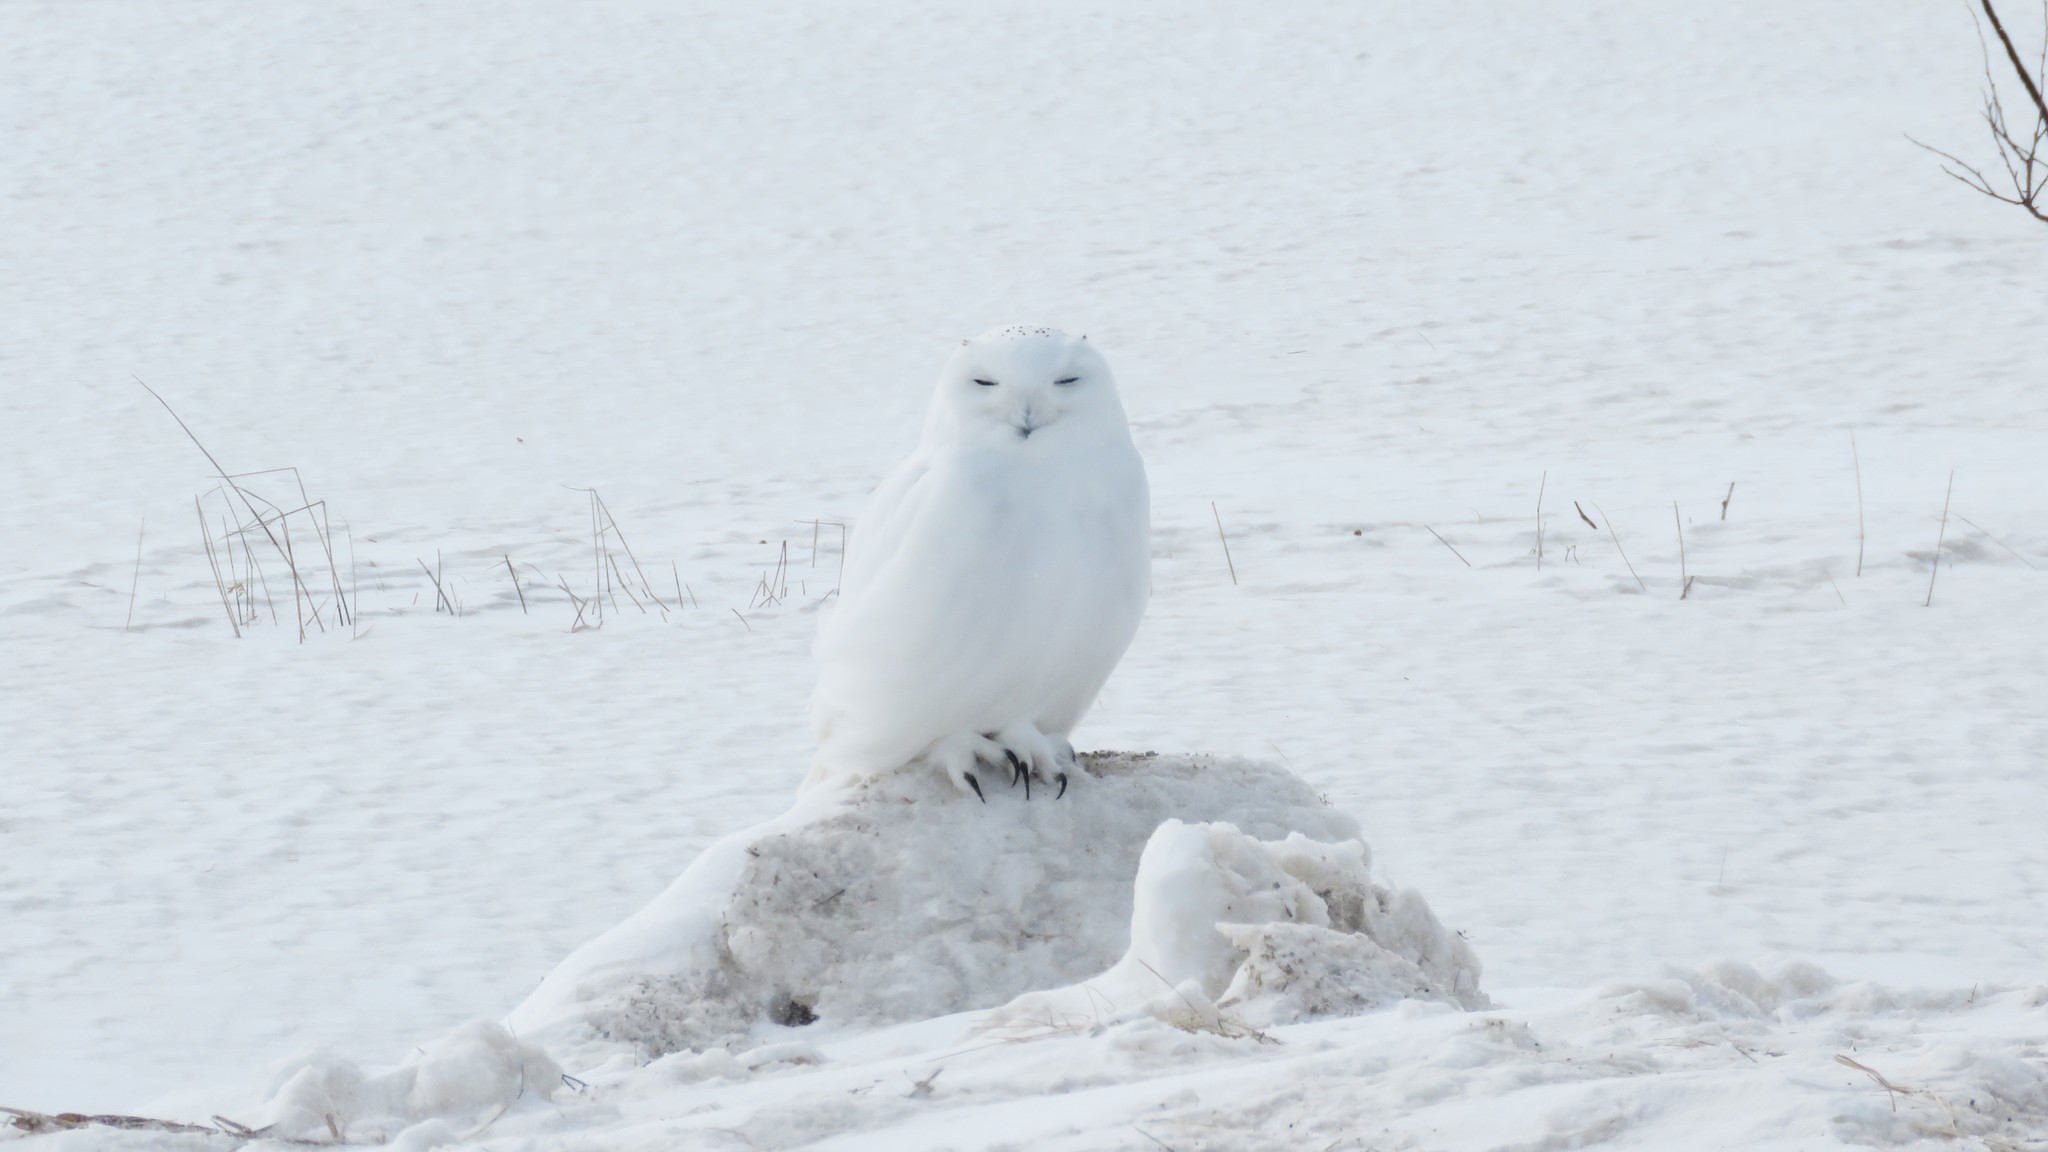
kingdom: Animalia
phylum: Chordata
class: Aves
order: Strigiformes
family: Strigidae
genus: Bubo
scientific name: Bubo scandiacus
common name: Snowy owl
